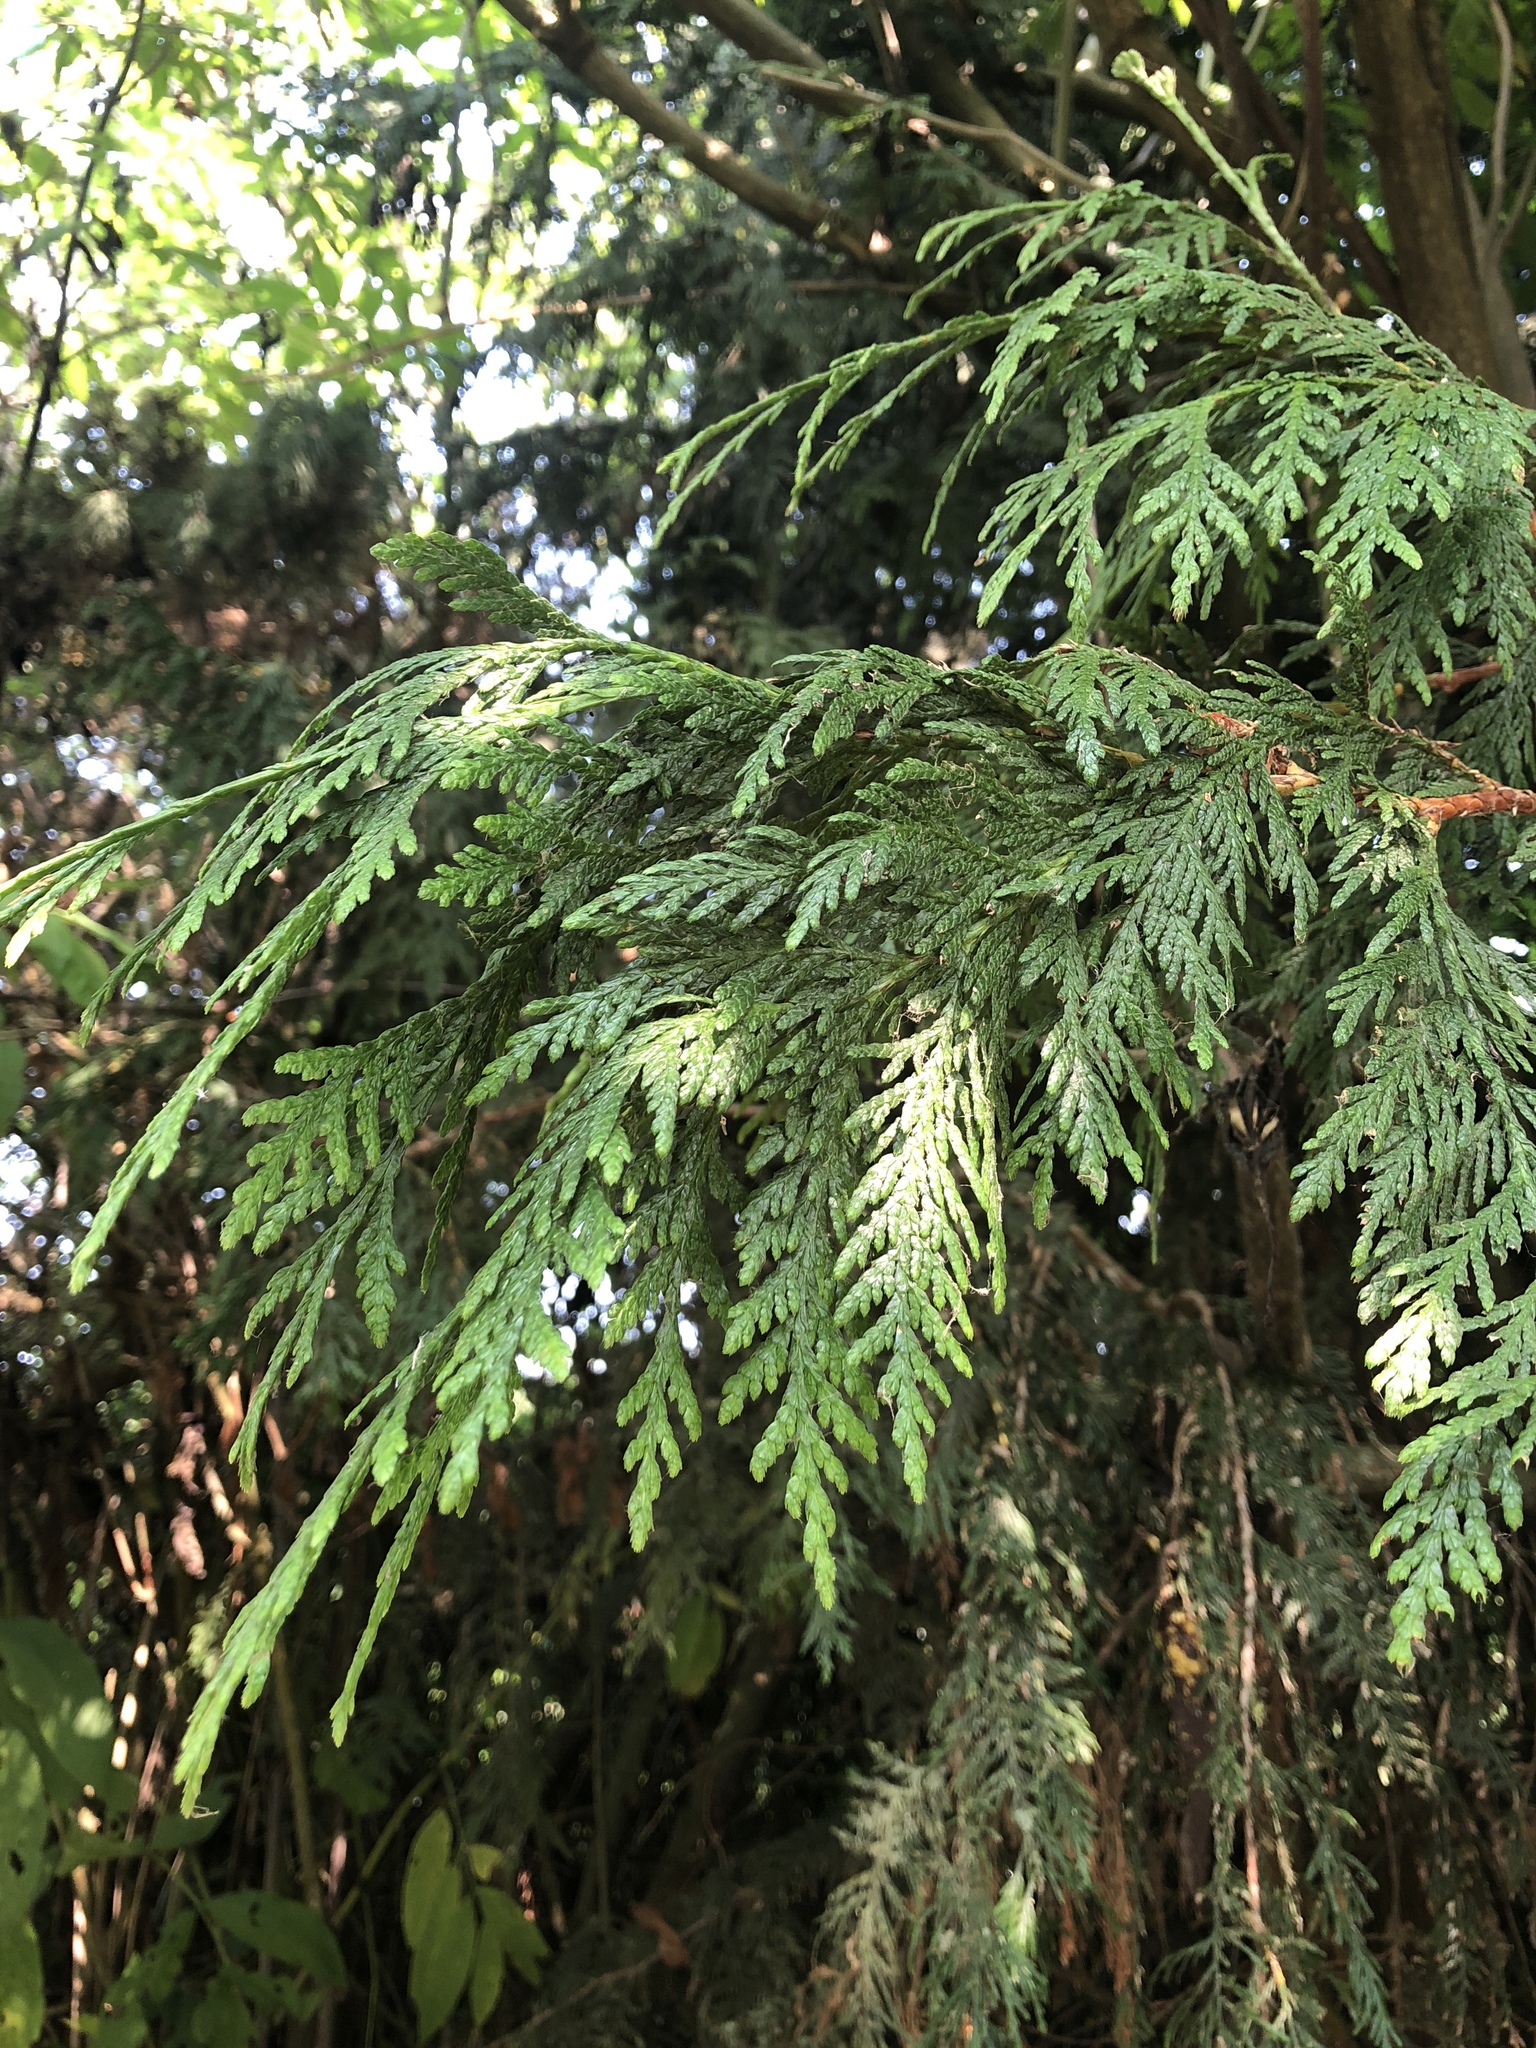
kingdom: Plantae
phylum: Tracheophyta
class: Pinopsida
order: Pinales
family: Cupressaceae
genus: Thuja
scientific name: Thuja plicata
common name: Western red-cedar
